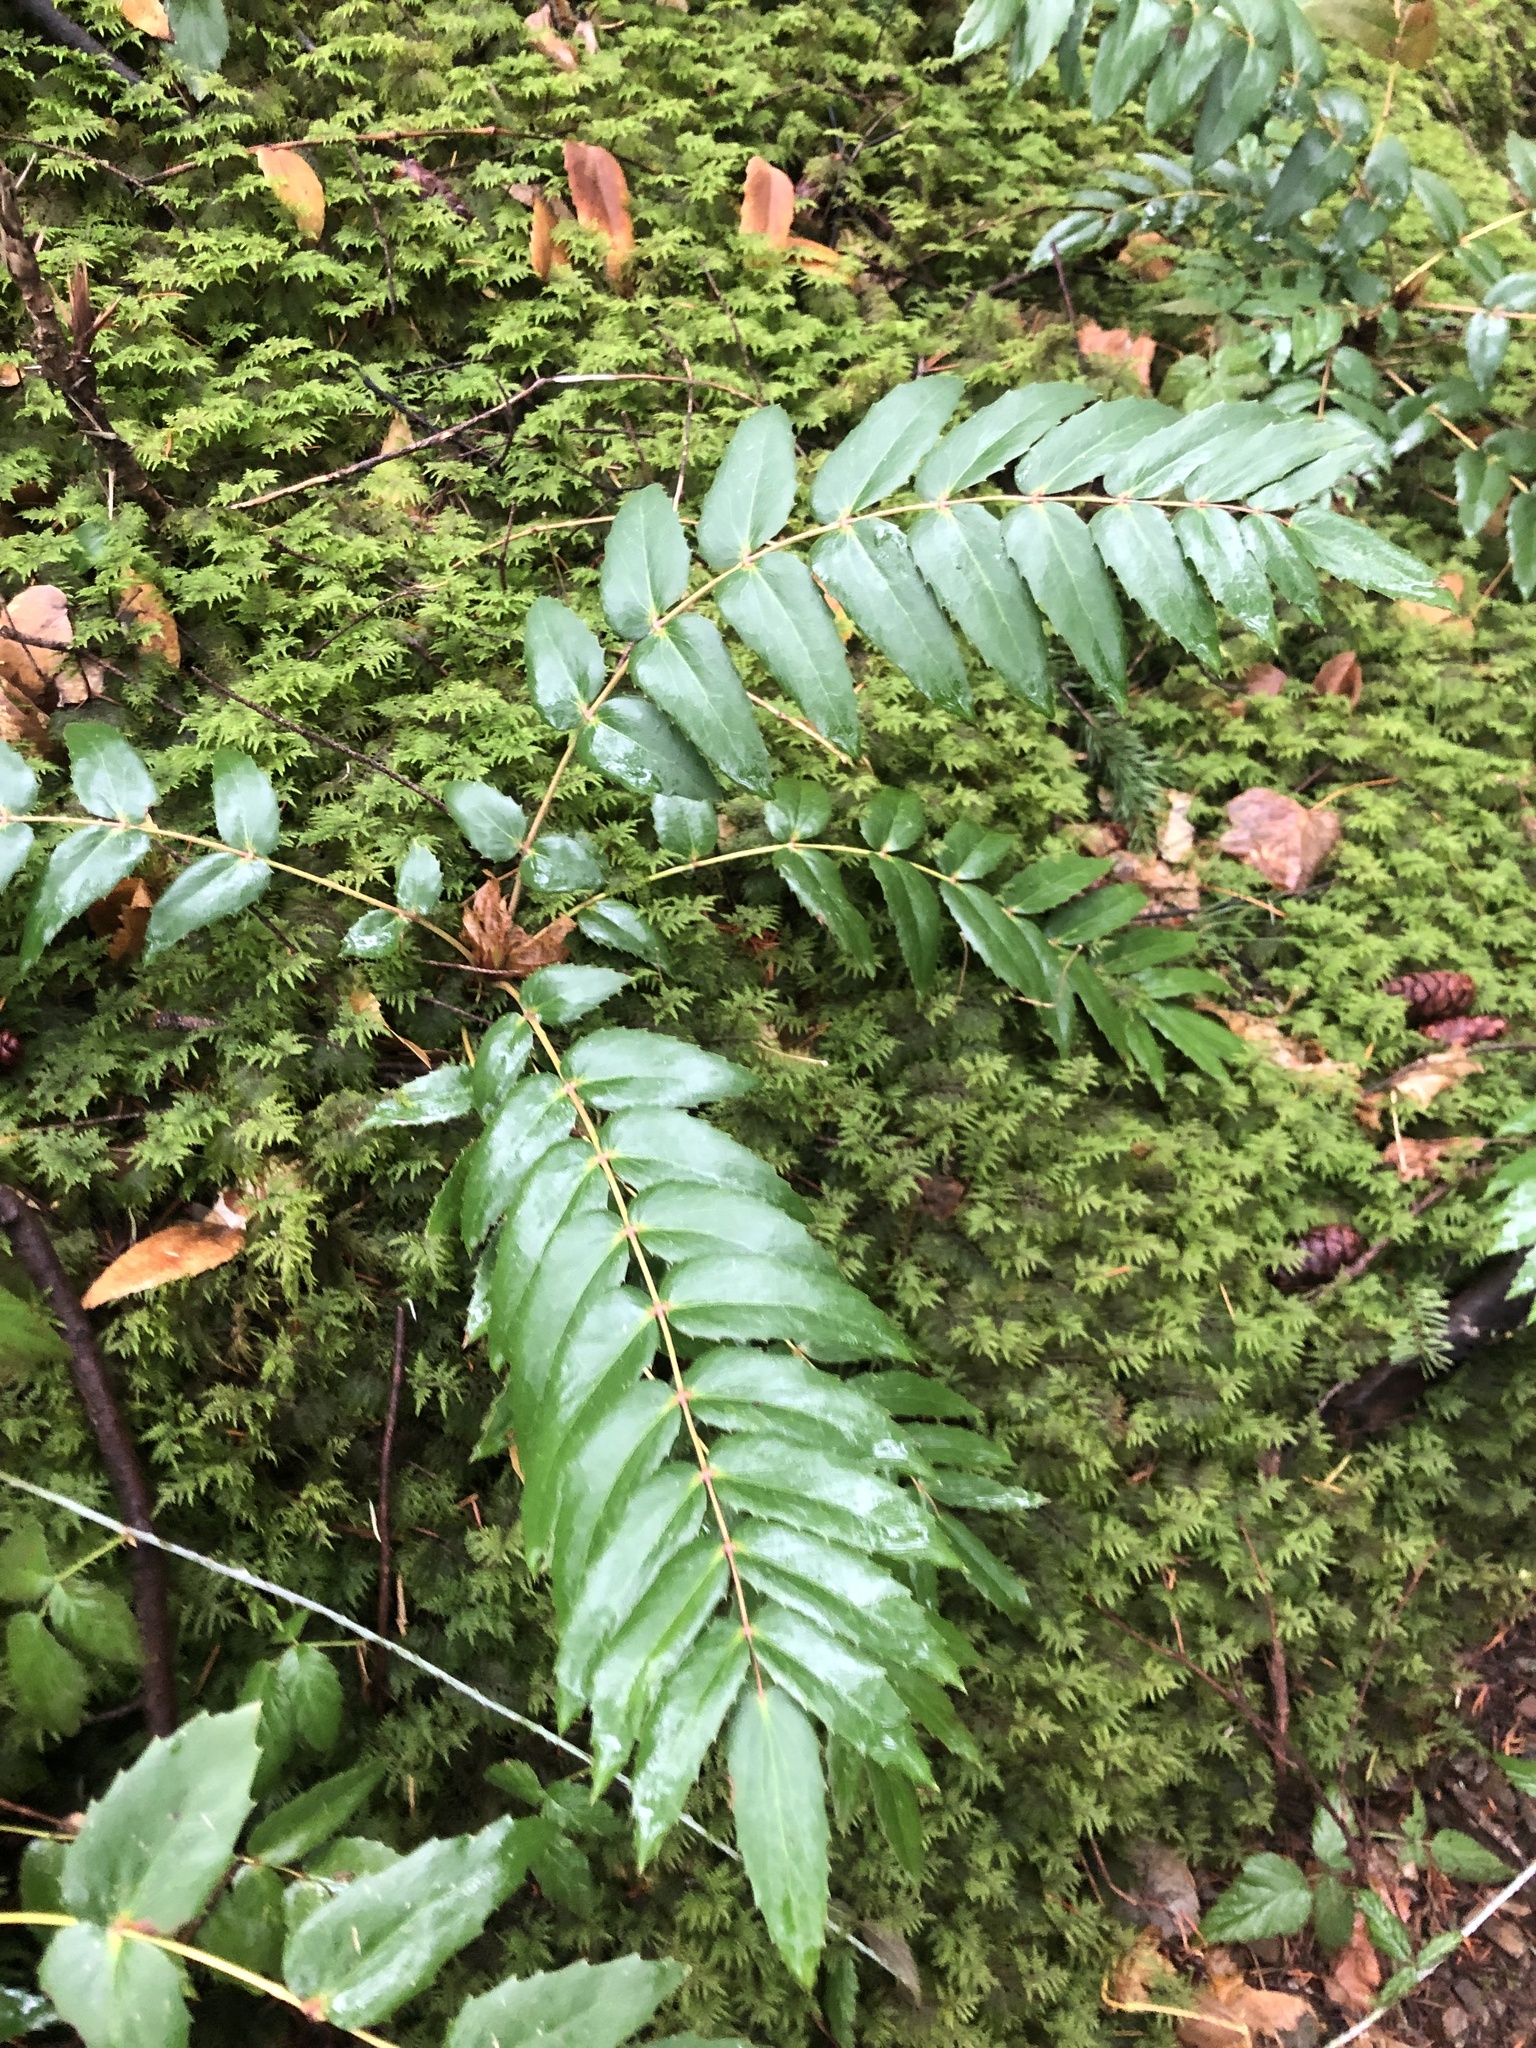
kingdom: Plantae
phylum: Tracheophyta
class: Magnoliopsida
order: Ranunculales
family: Berberidaceae
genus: Mahonia
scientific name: Mahonia nervosa
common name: Cascade oregon-grape
